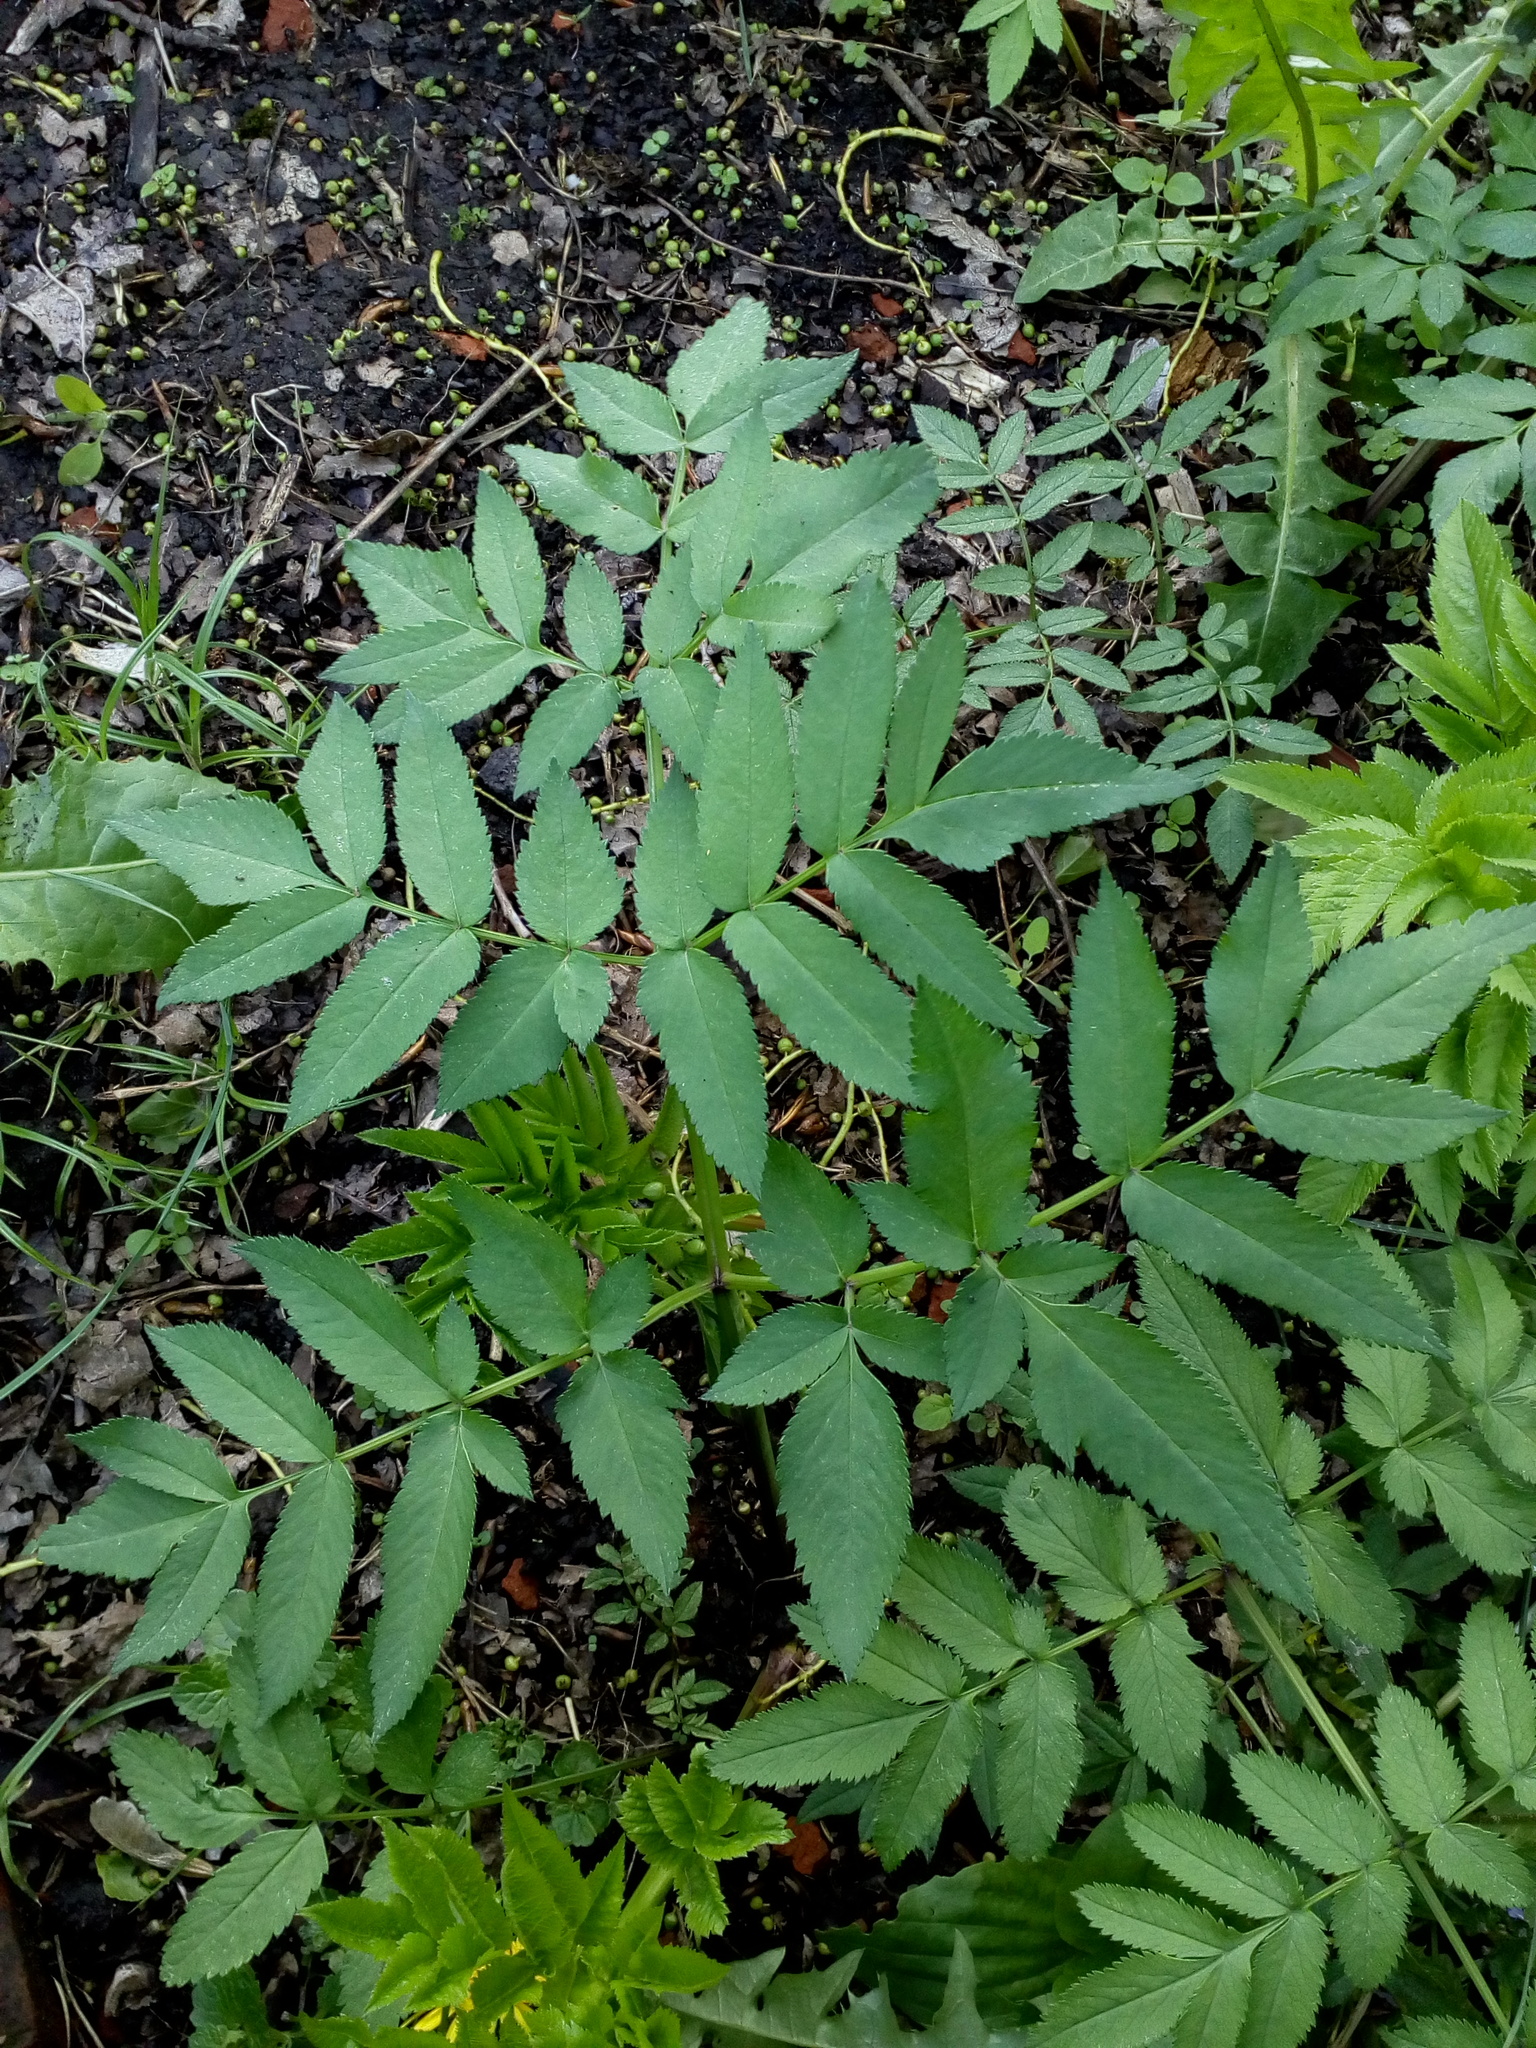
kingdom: Plantae
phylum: Tracheophyta
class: Magnoliopsida
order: Apiales
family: Apiaceae
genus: Angelica
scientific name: Angelica sylvestris
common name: Wild angelica
